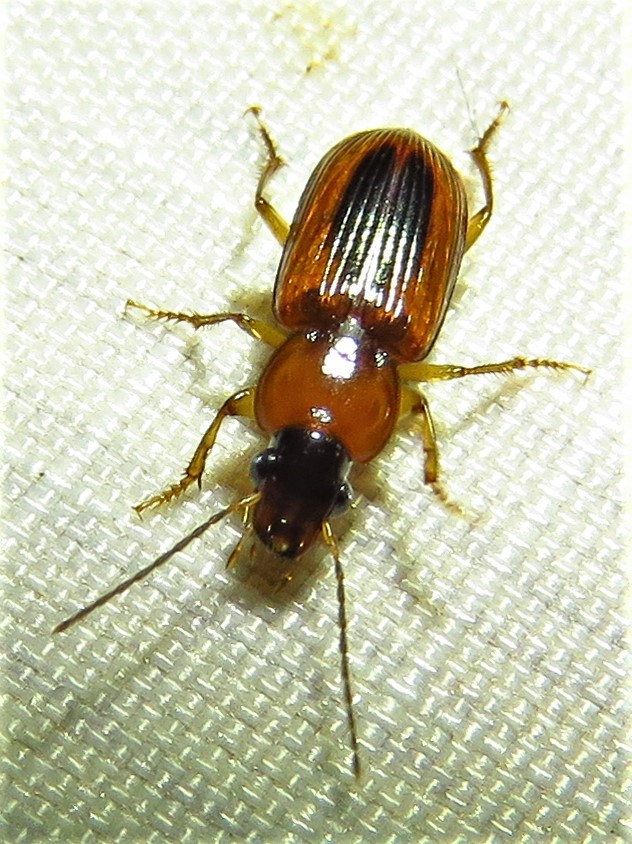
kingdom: Animalia
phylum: Arthropoda
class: Insecta
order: Coleoptera
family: Carabidae
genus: Stenolophus
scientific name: Stenolophus dissimilis
